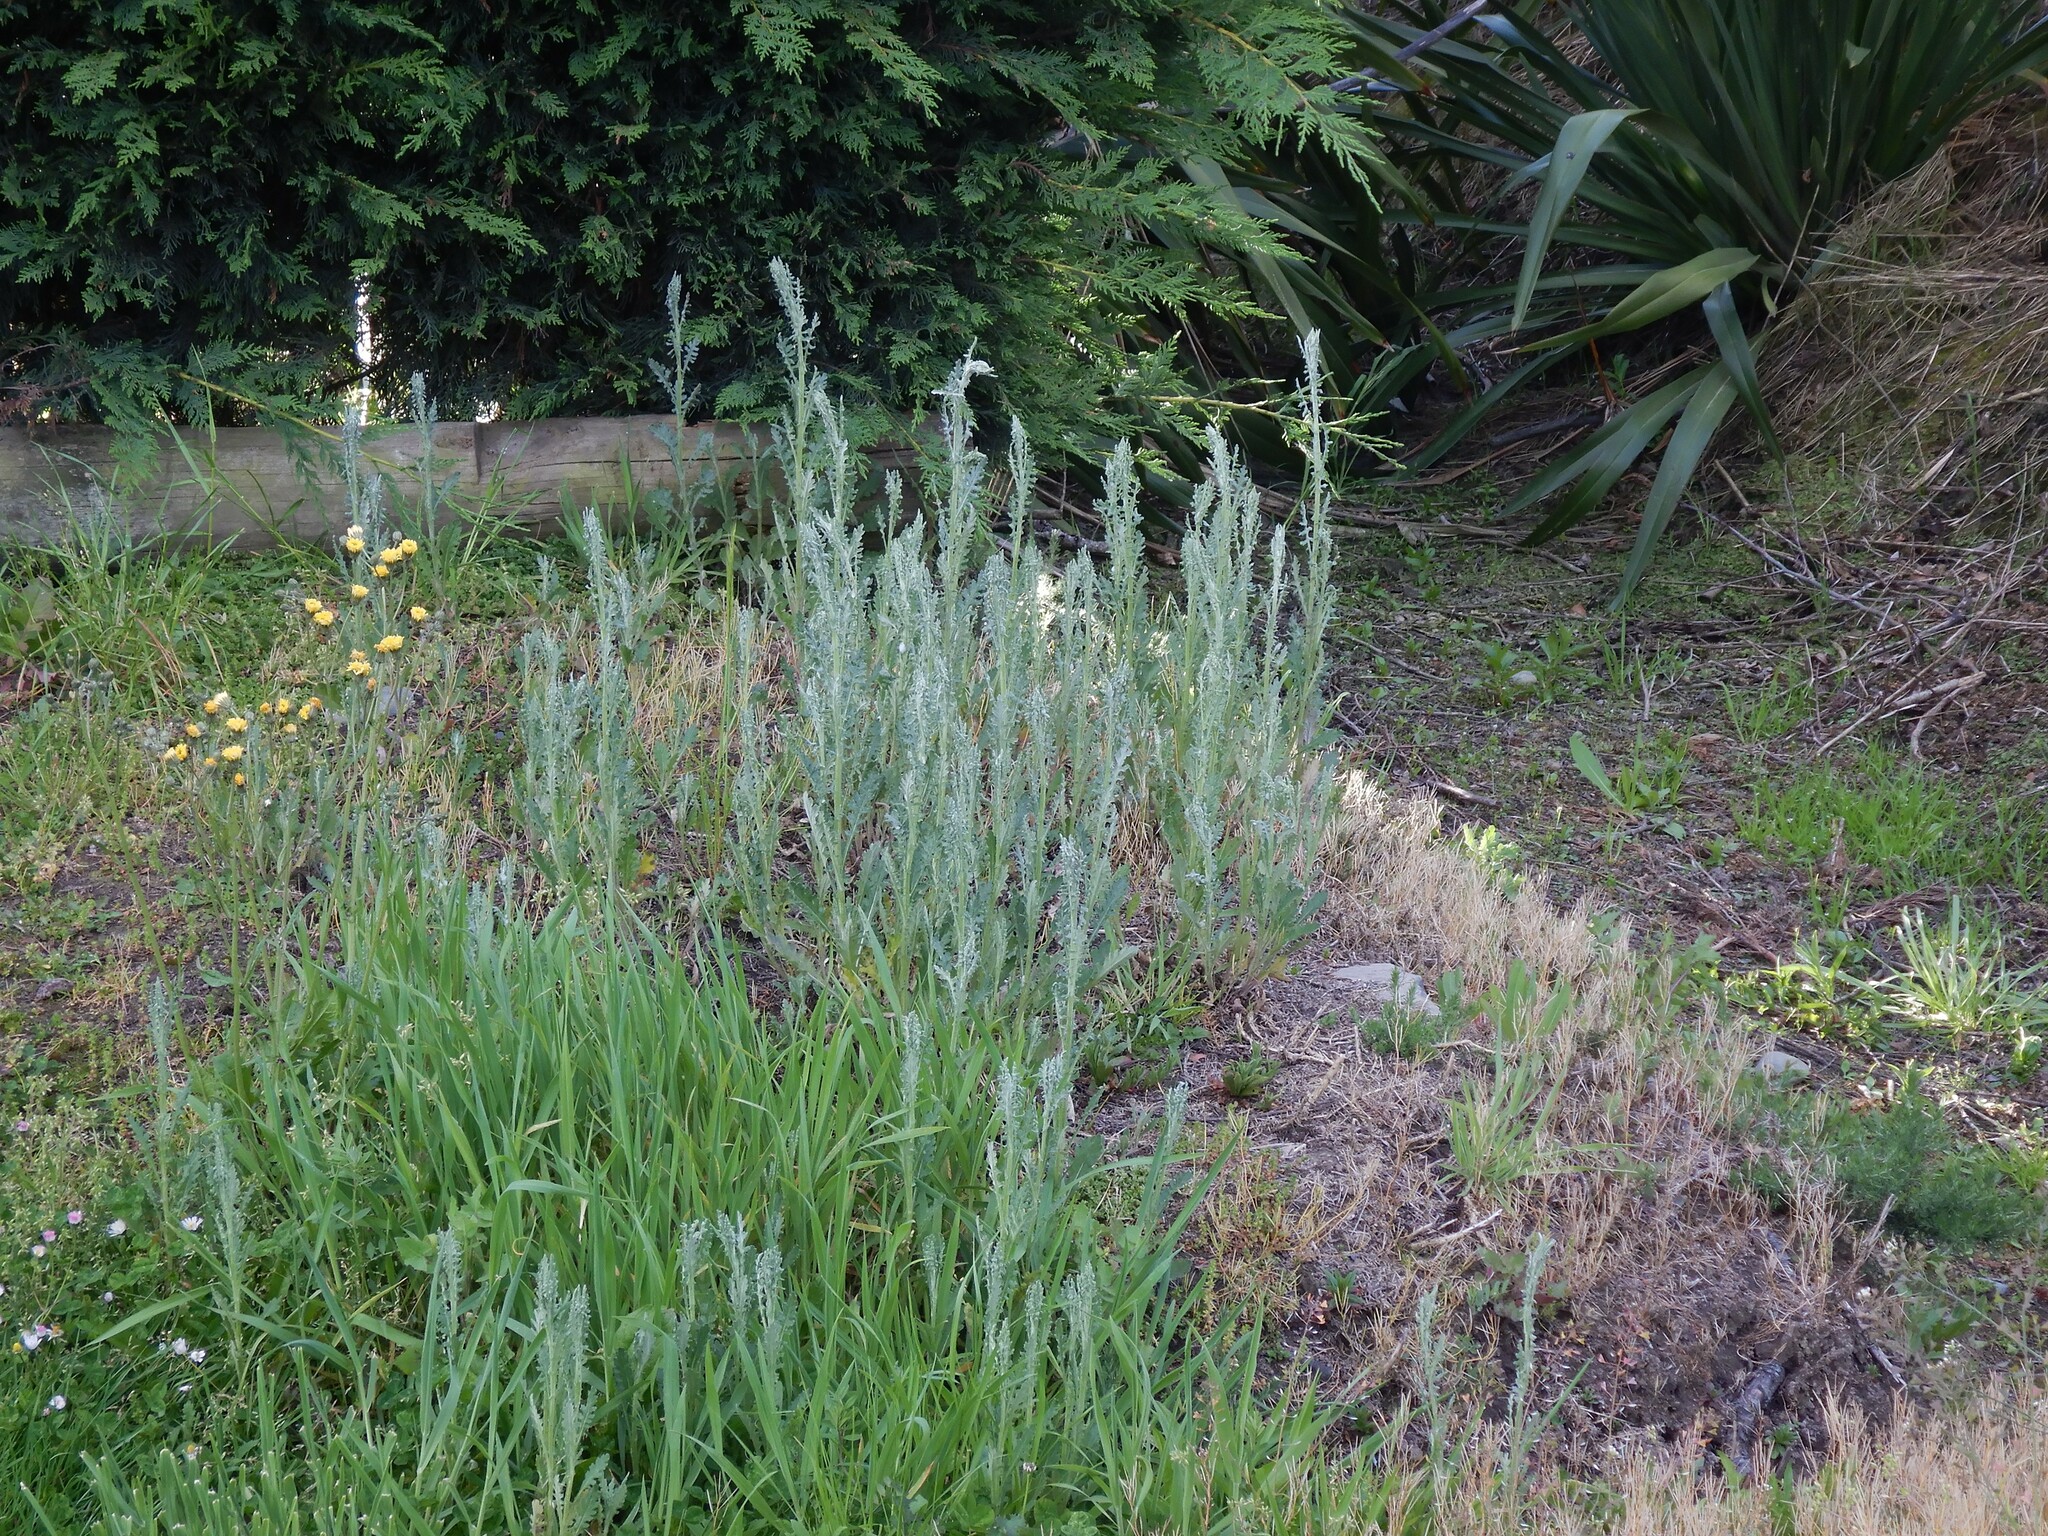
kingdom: Plantae
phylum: Tracheophyta
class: Magnoliopsida
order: Asterales
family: Asteraceae
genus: Senecio
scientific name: Senecio glomeratus
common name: Cutleaf burnweed
